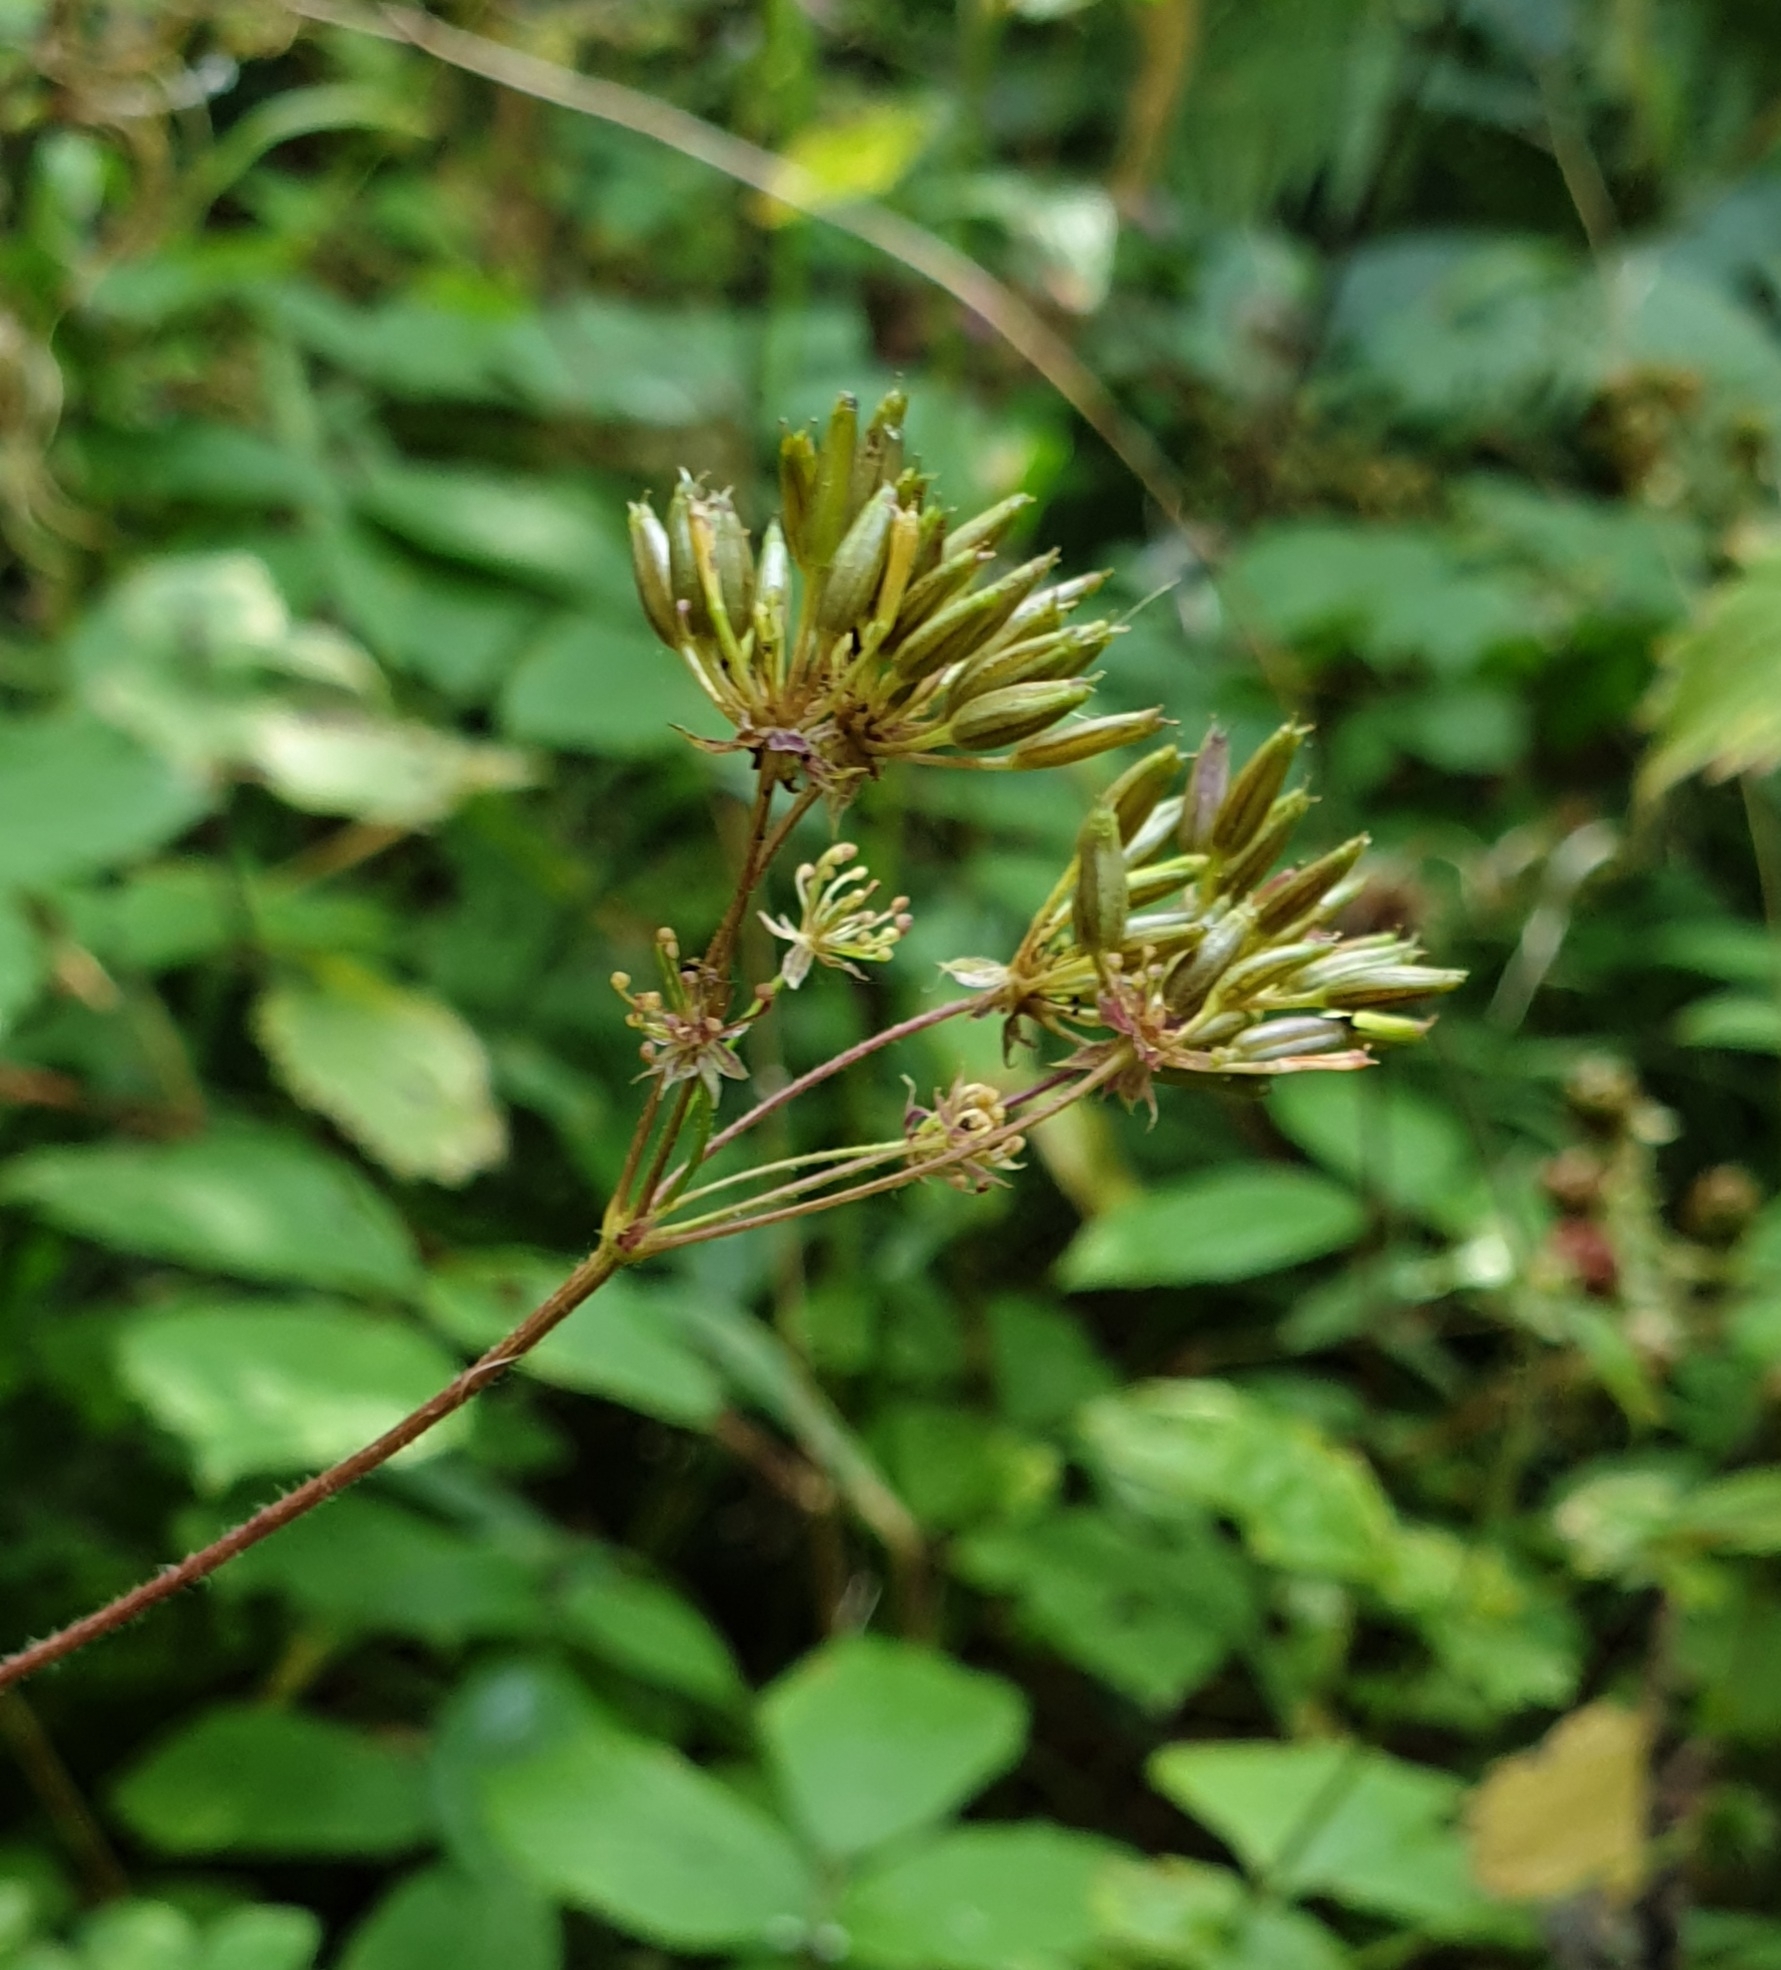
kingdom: Plantae
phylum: Tracheophyta
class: Magnoliopsida
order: Apiales
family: Apiaceae
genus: Chaerophyllum
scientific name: Chaerophyllum temulum
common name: Rough chervil
